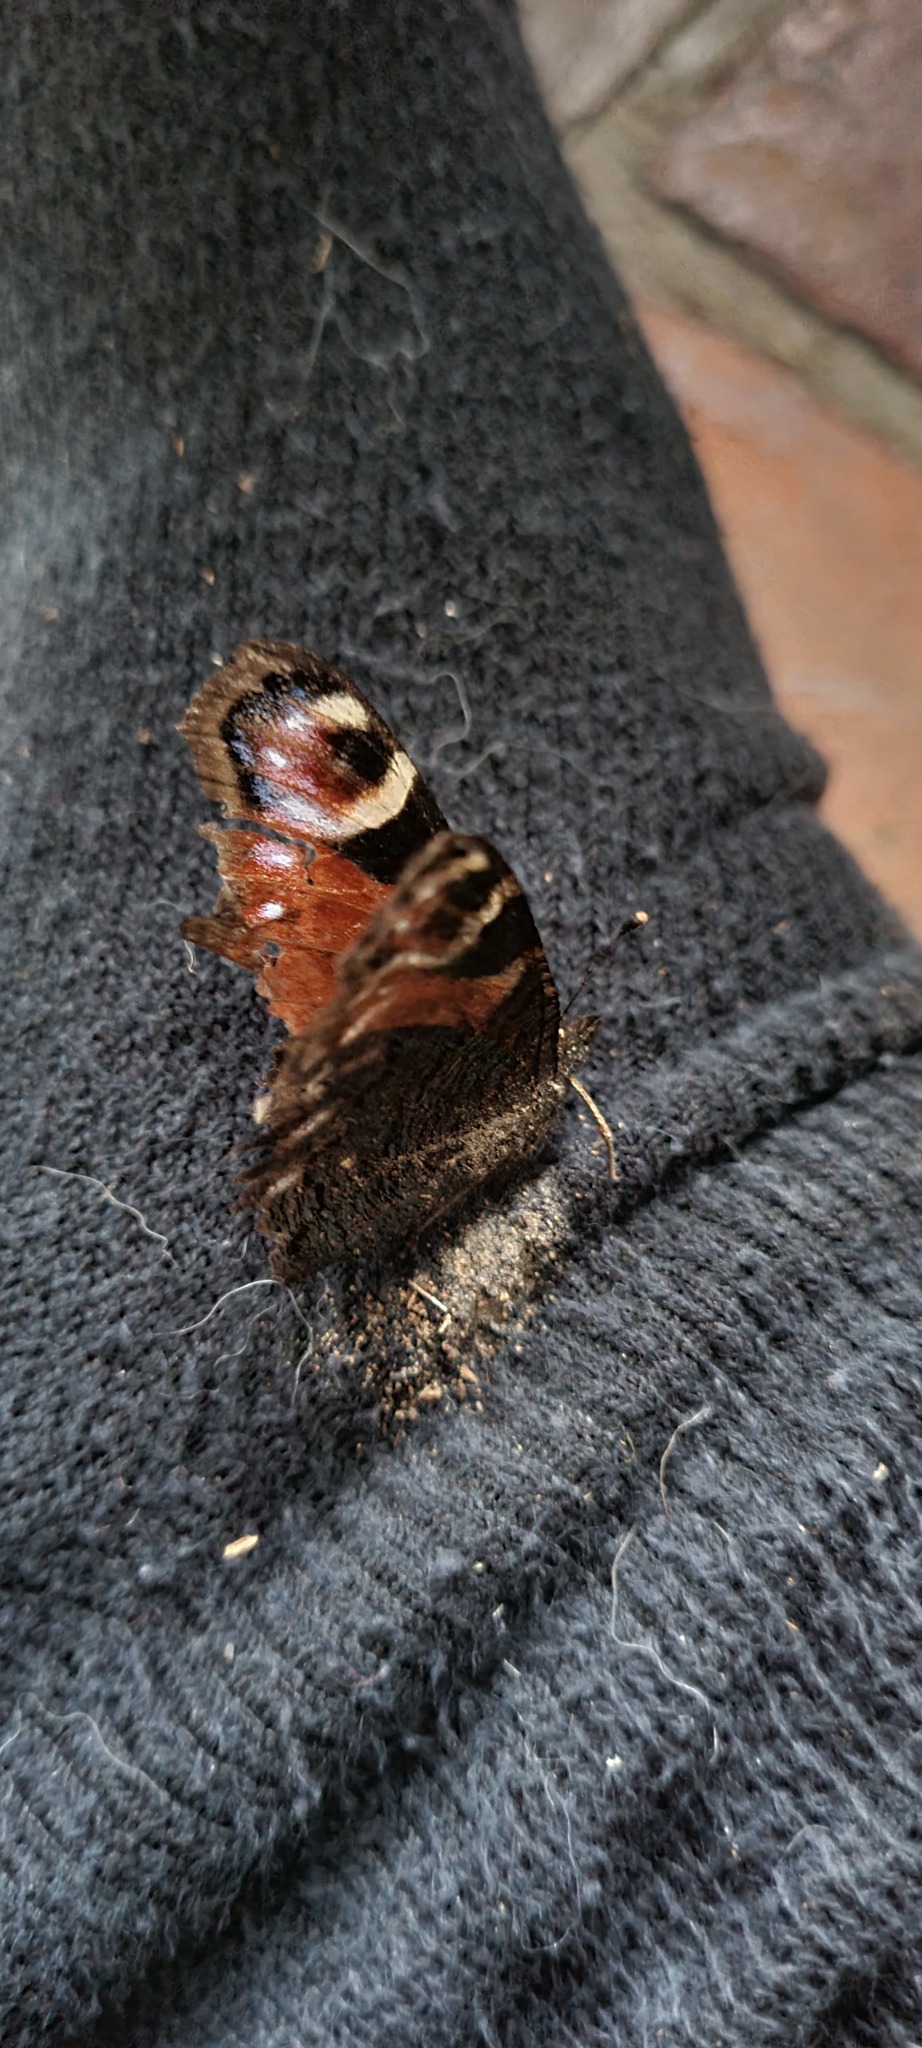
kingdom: Animalia
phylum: Arthropoda
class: Insecta
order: Lepidoptera
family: Nymphalidae
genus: Aglais
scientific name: Aglais io
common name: Peacock
